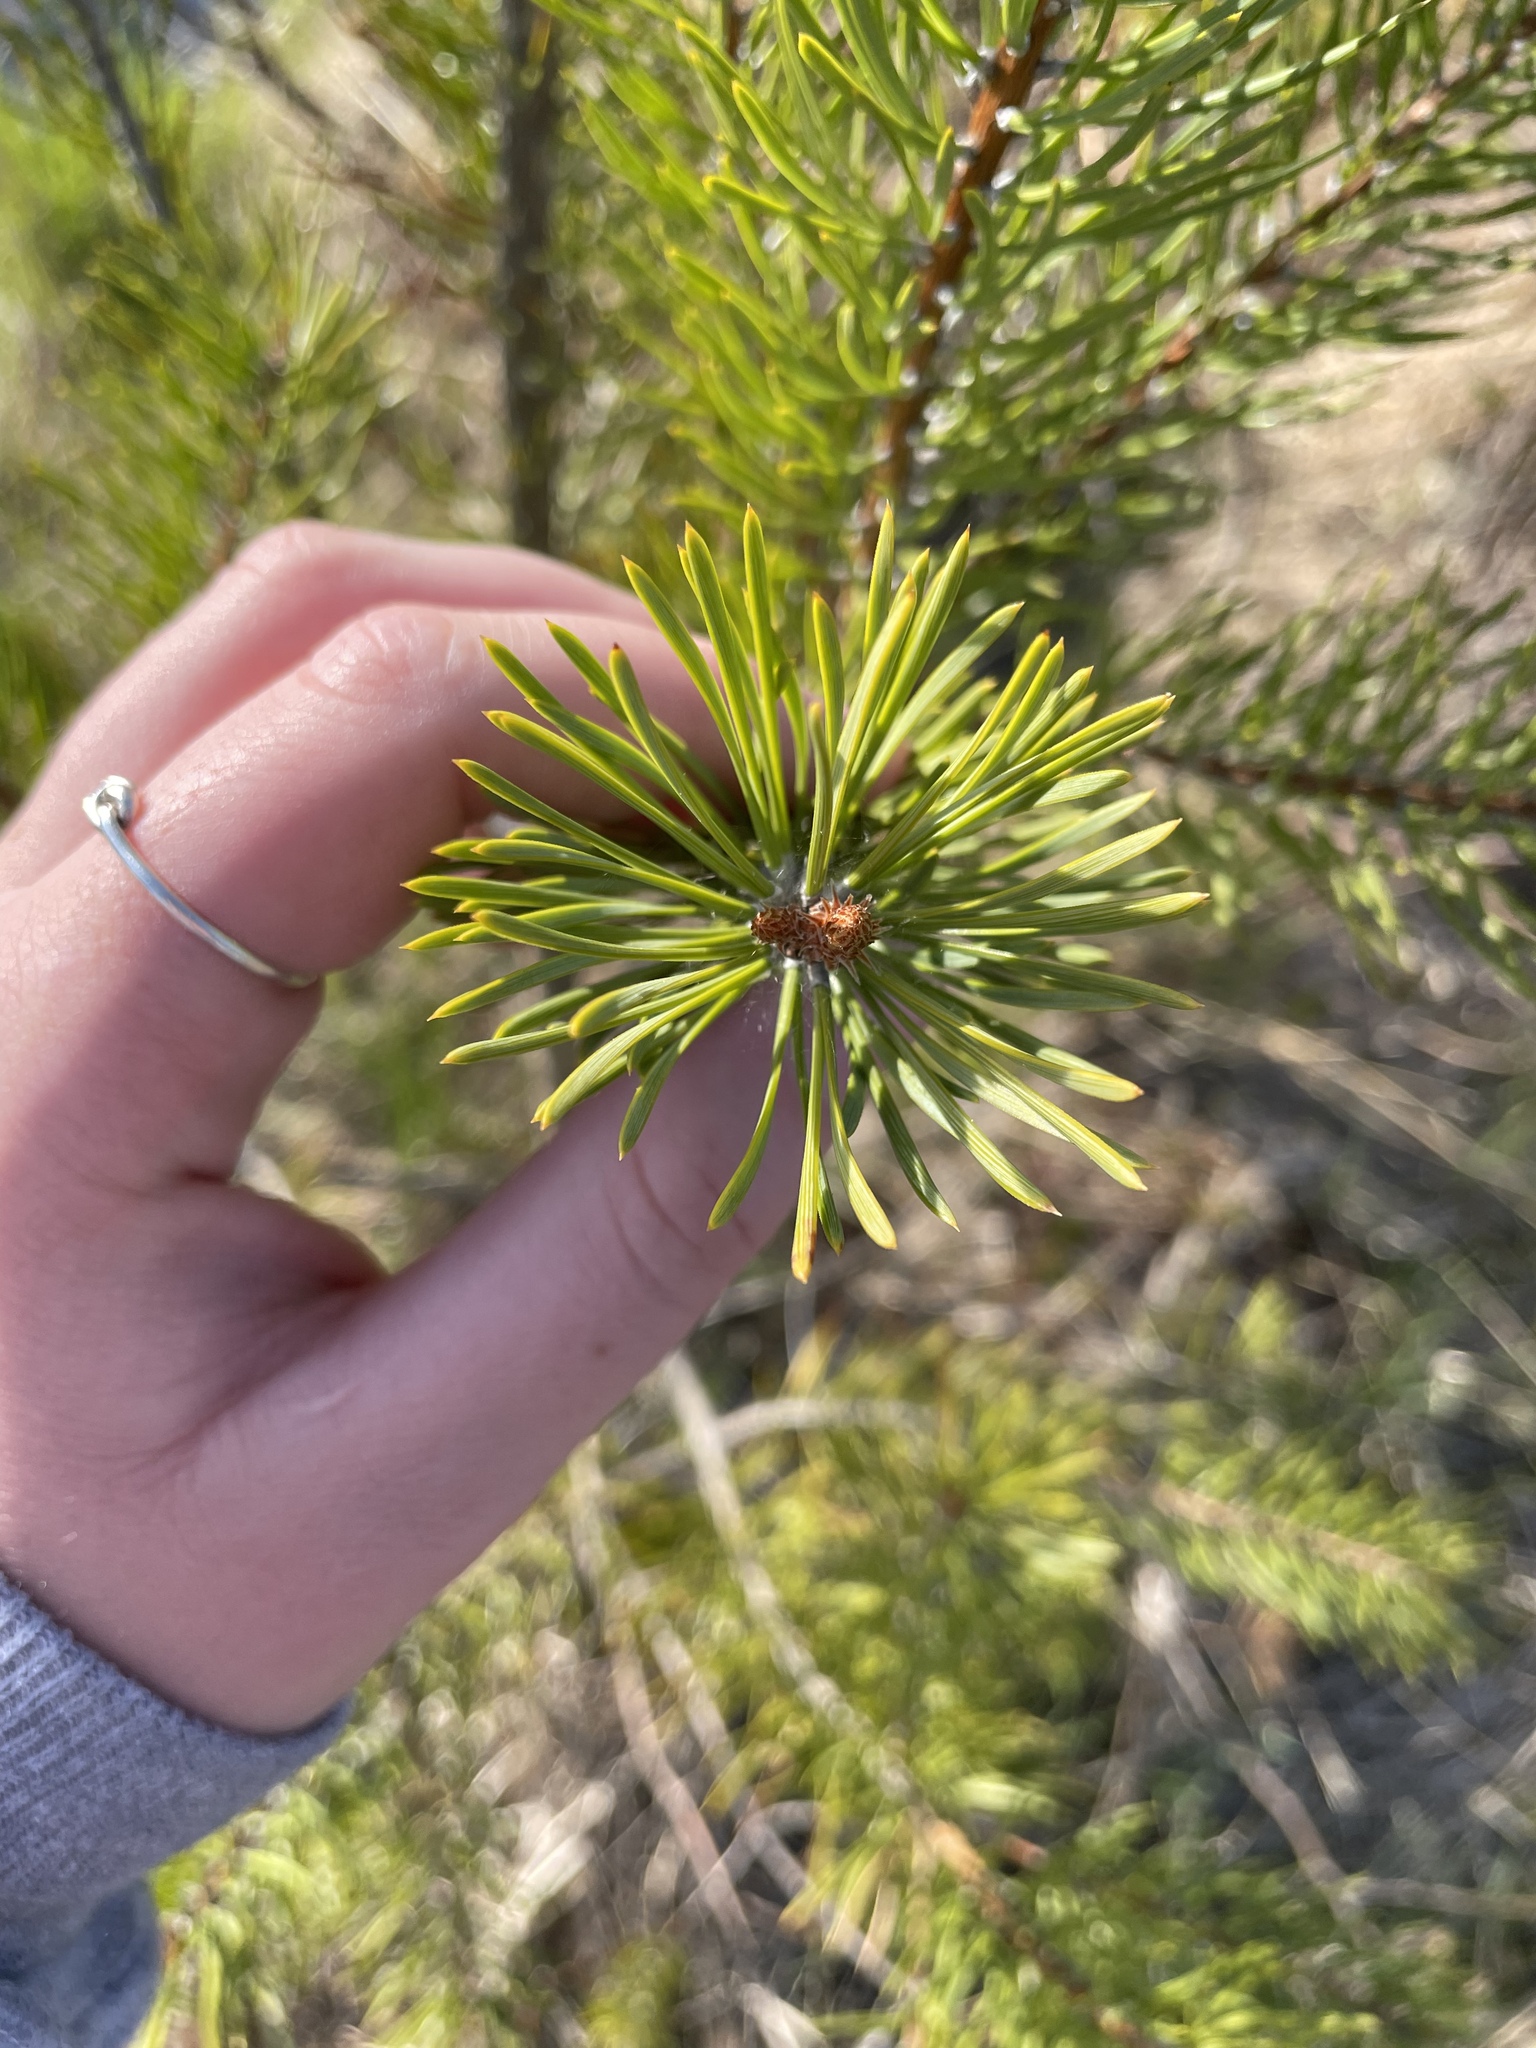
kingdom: Plantae
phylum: Tracheophyta
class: Pinopsida
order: Pinales
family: Pinaceae
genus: Pinus
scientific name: Pinus sylvestris
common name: Scots pine
